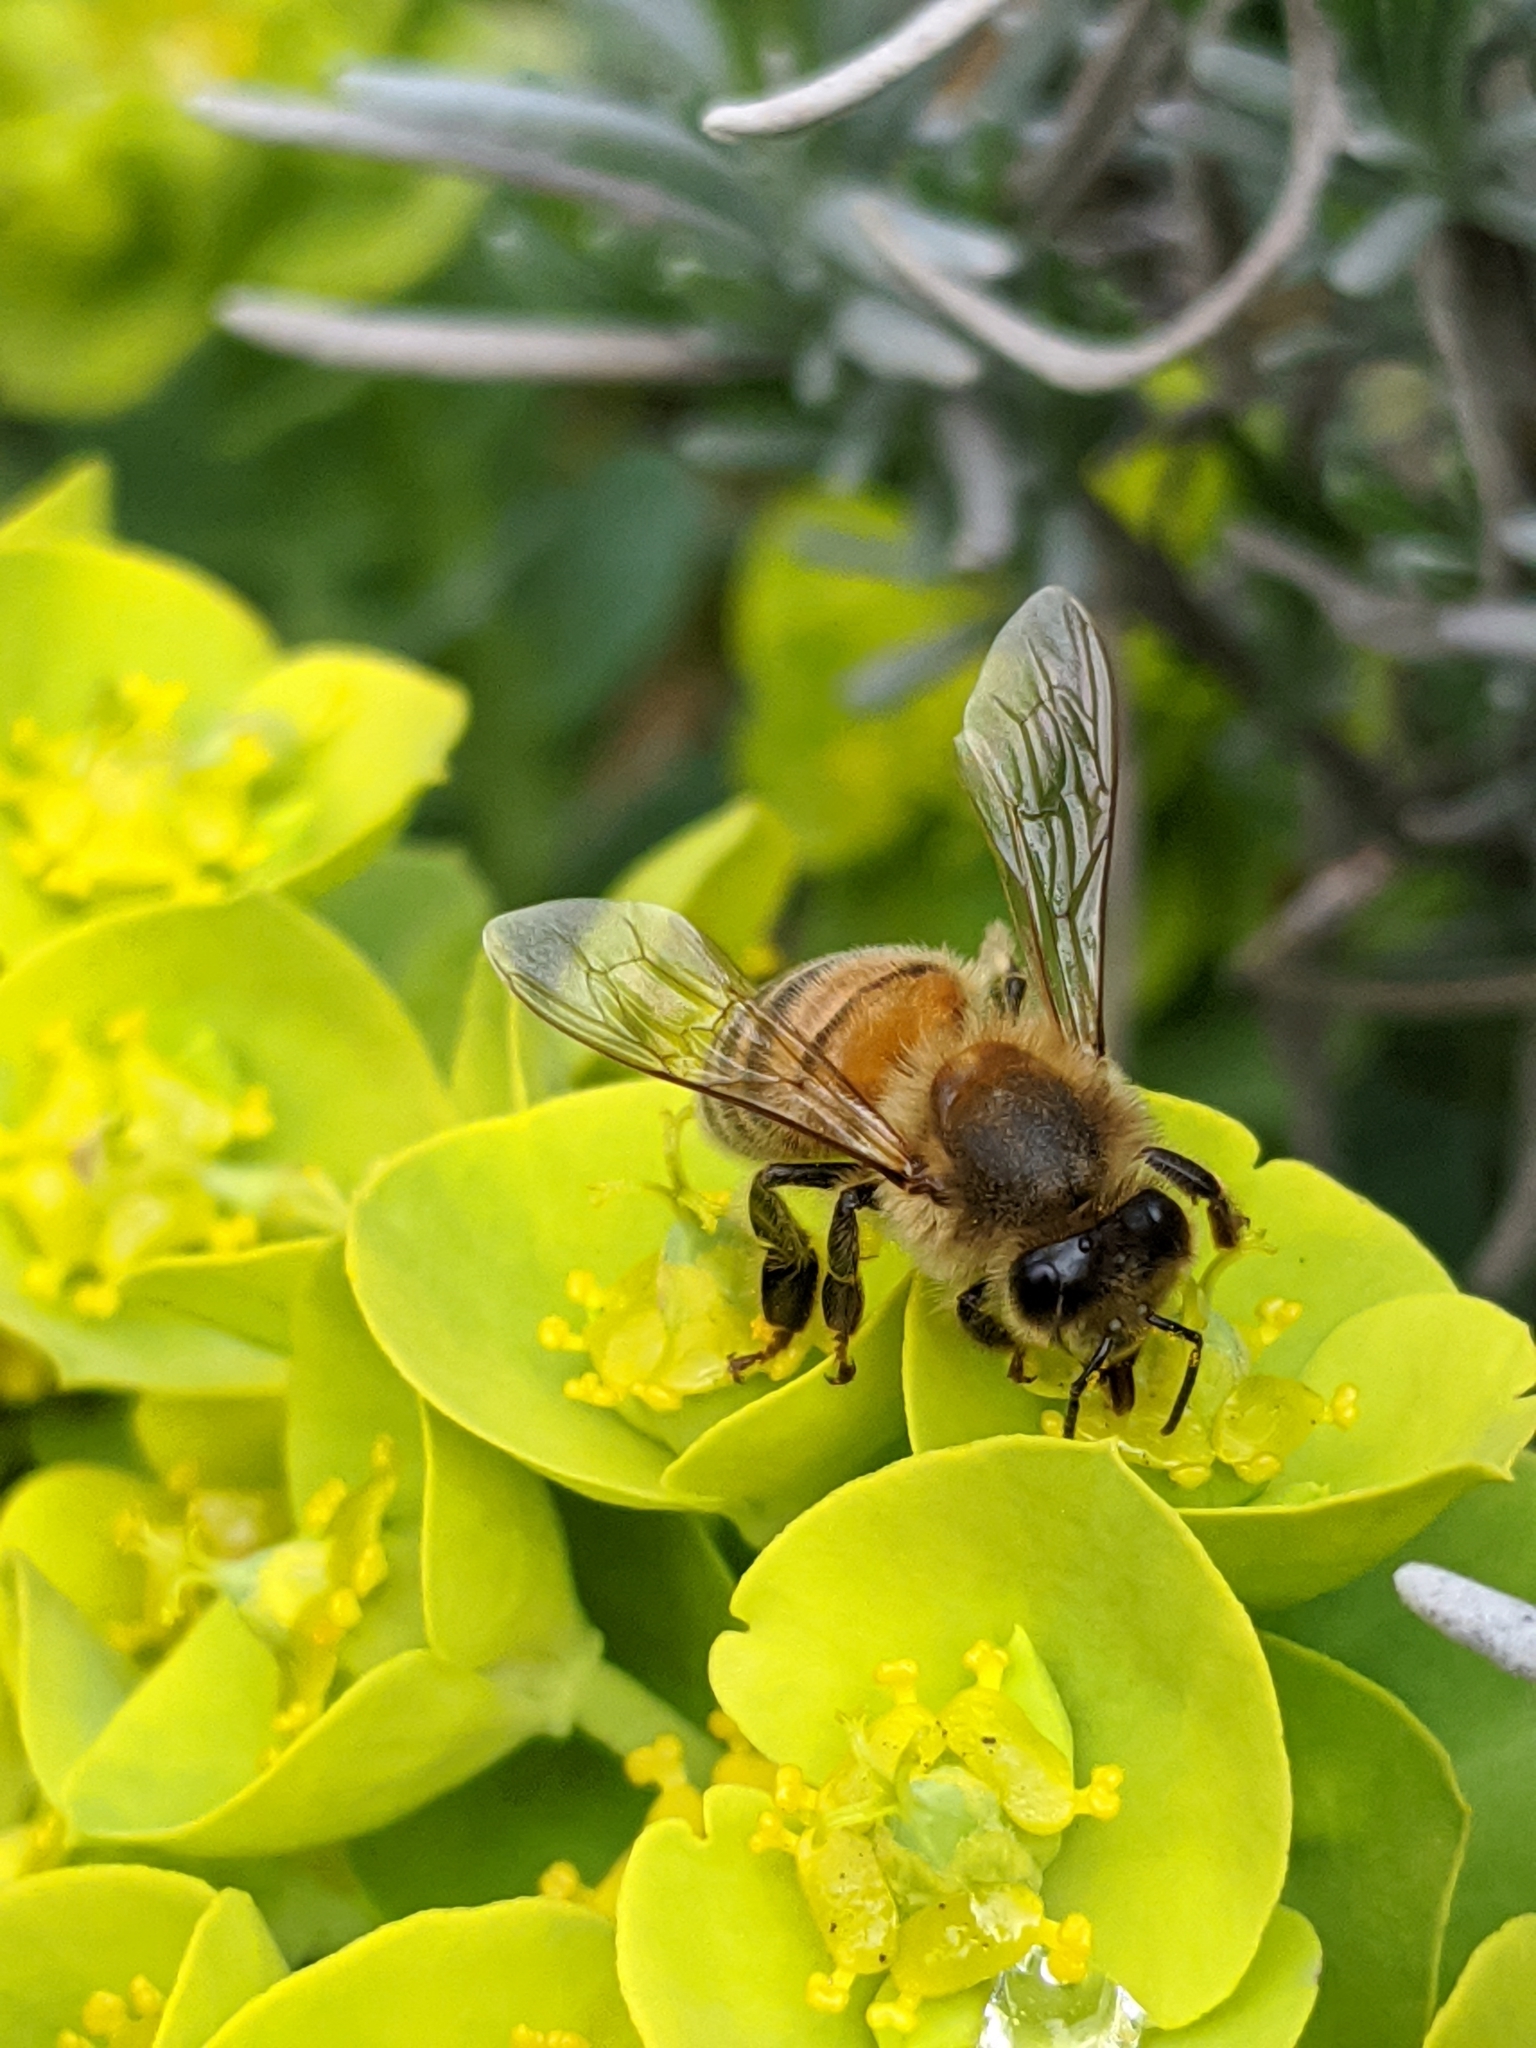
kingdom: Animalia
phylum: Arthropoda
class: Insecta
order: Hymenoptera
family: Apidae
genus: Apis
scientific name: Apis mellifera
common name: Honey bee
